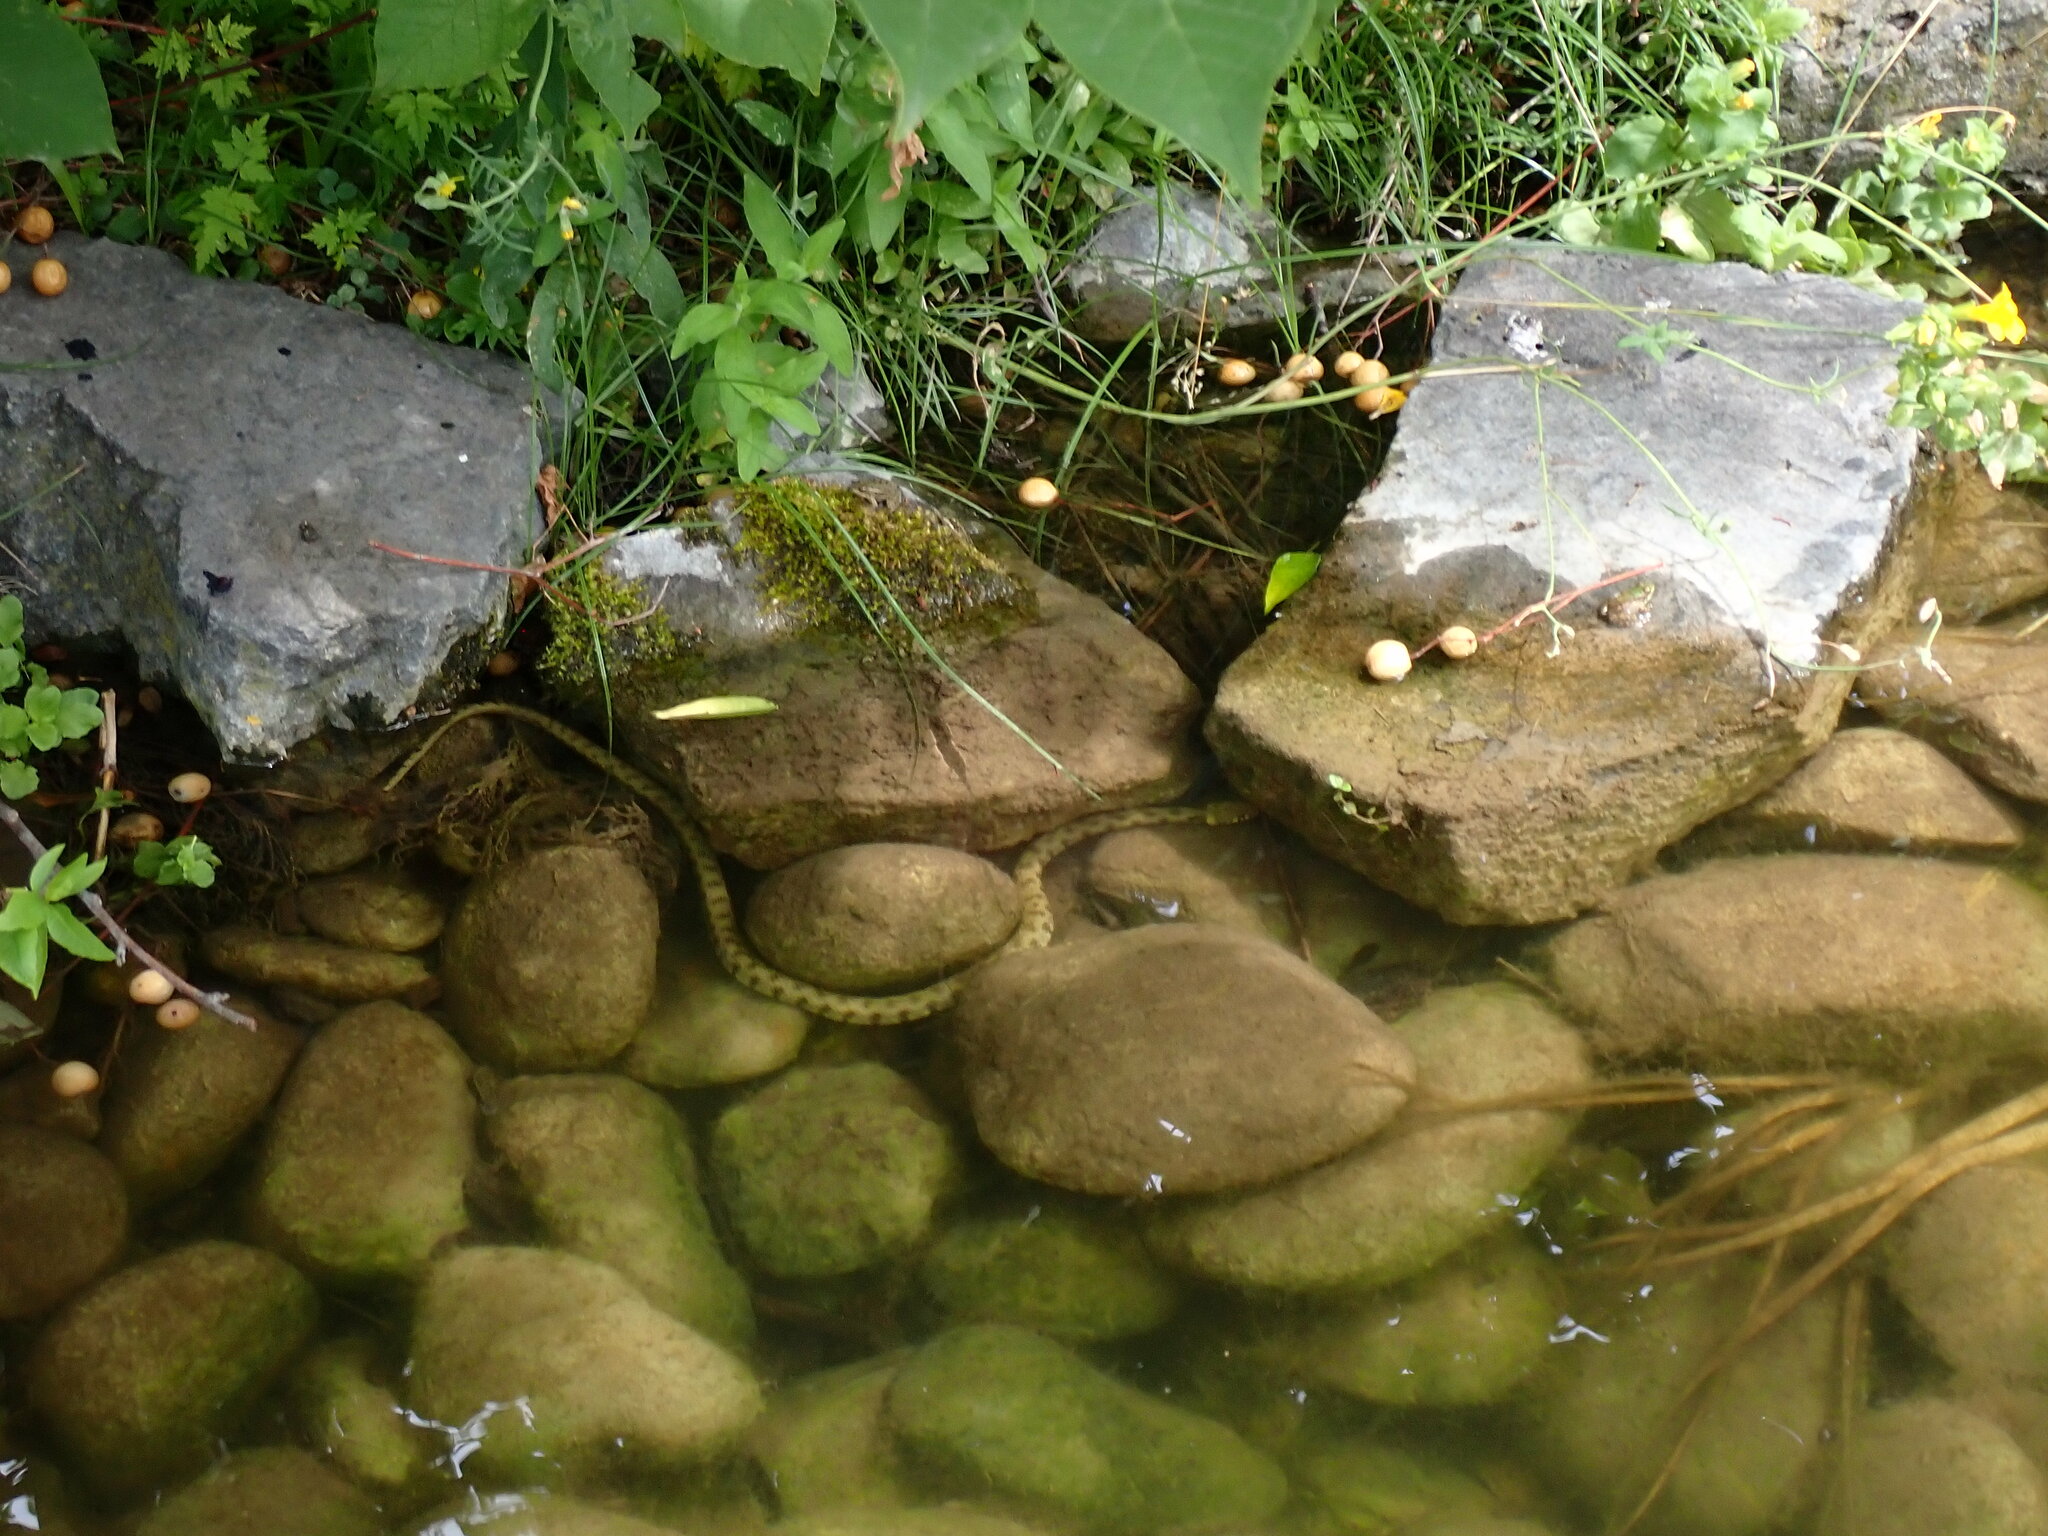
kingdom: Animalia
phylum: Chordata
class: Squamata
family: Colubridae
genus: Natrix
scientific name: Natrix helvetica
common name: Banded grass snake
